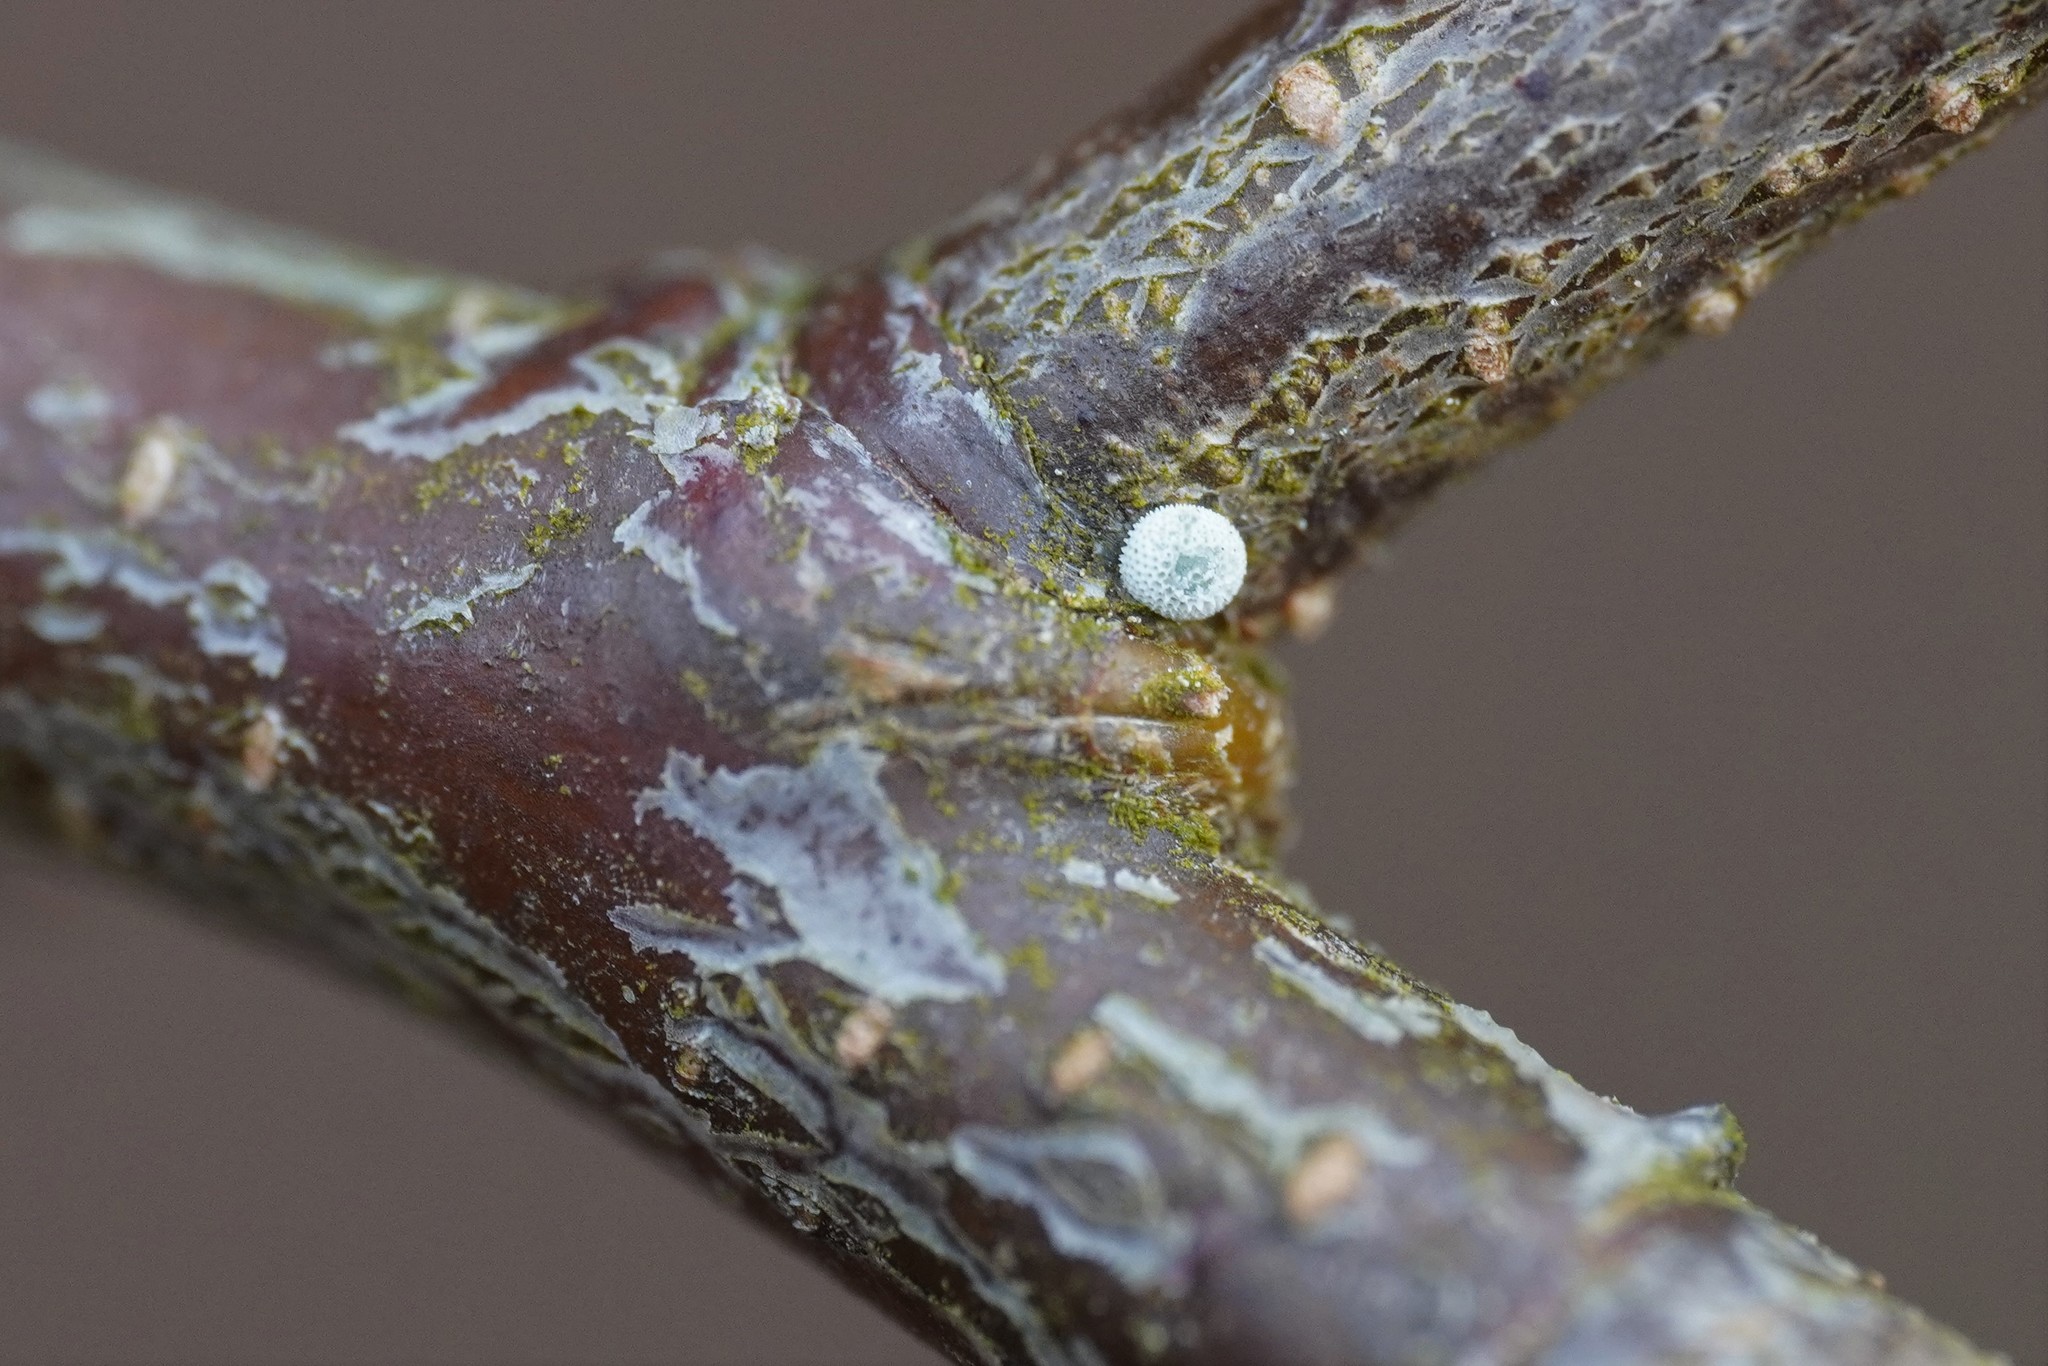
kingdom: Animalia
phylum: Arthropoda
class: Insecta
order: Lepidoptera
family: Lycaenidae
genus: Thecla
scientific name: Thecla betulae
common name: Brown hairstreak
